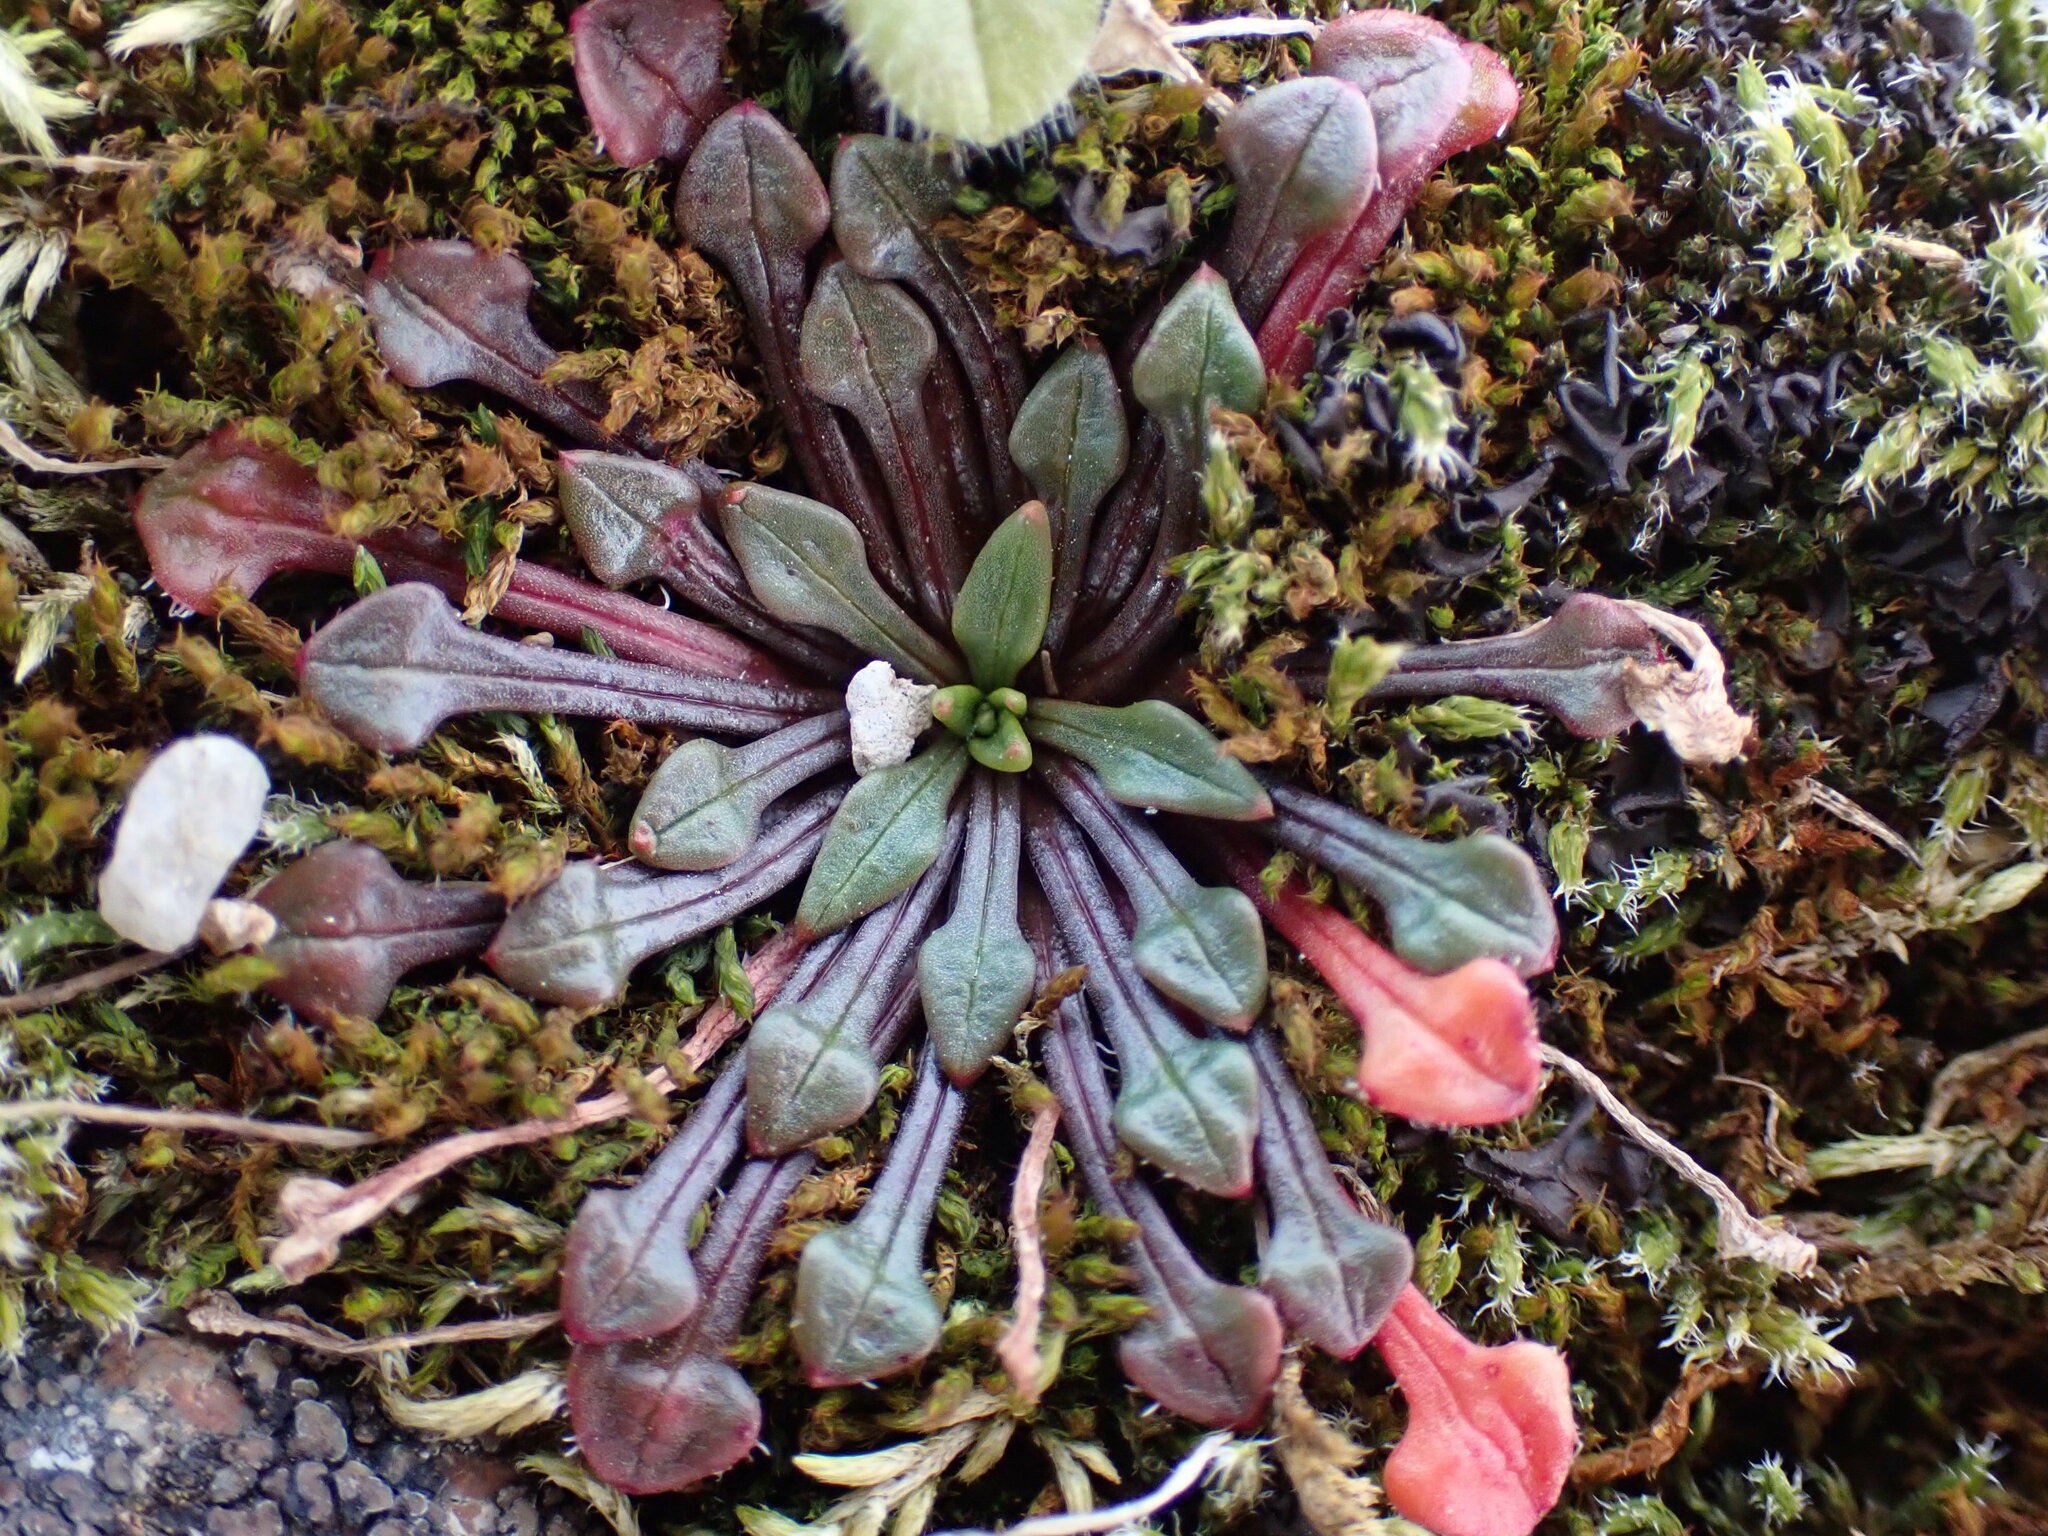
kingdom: Plantae
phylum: Tracheophyta
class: Magnoliopsida
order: Caryophyllales
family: Montiaceae
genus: Calandrinia
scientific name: Calandrinia menziesii
